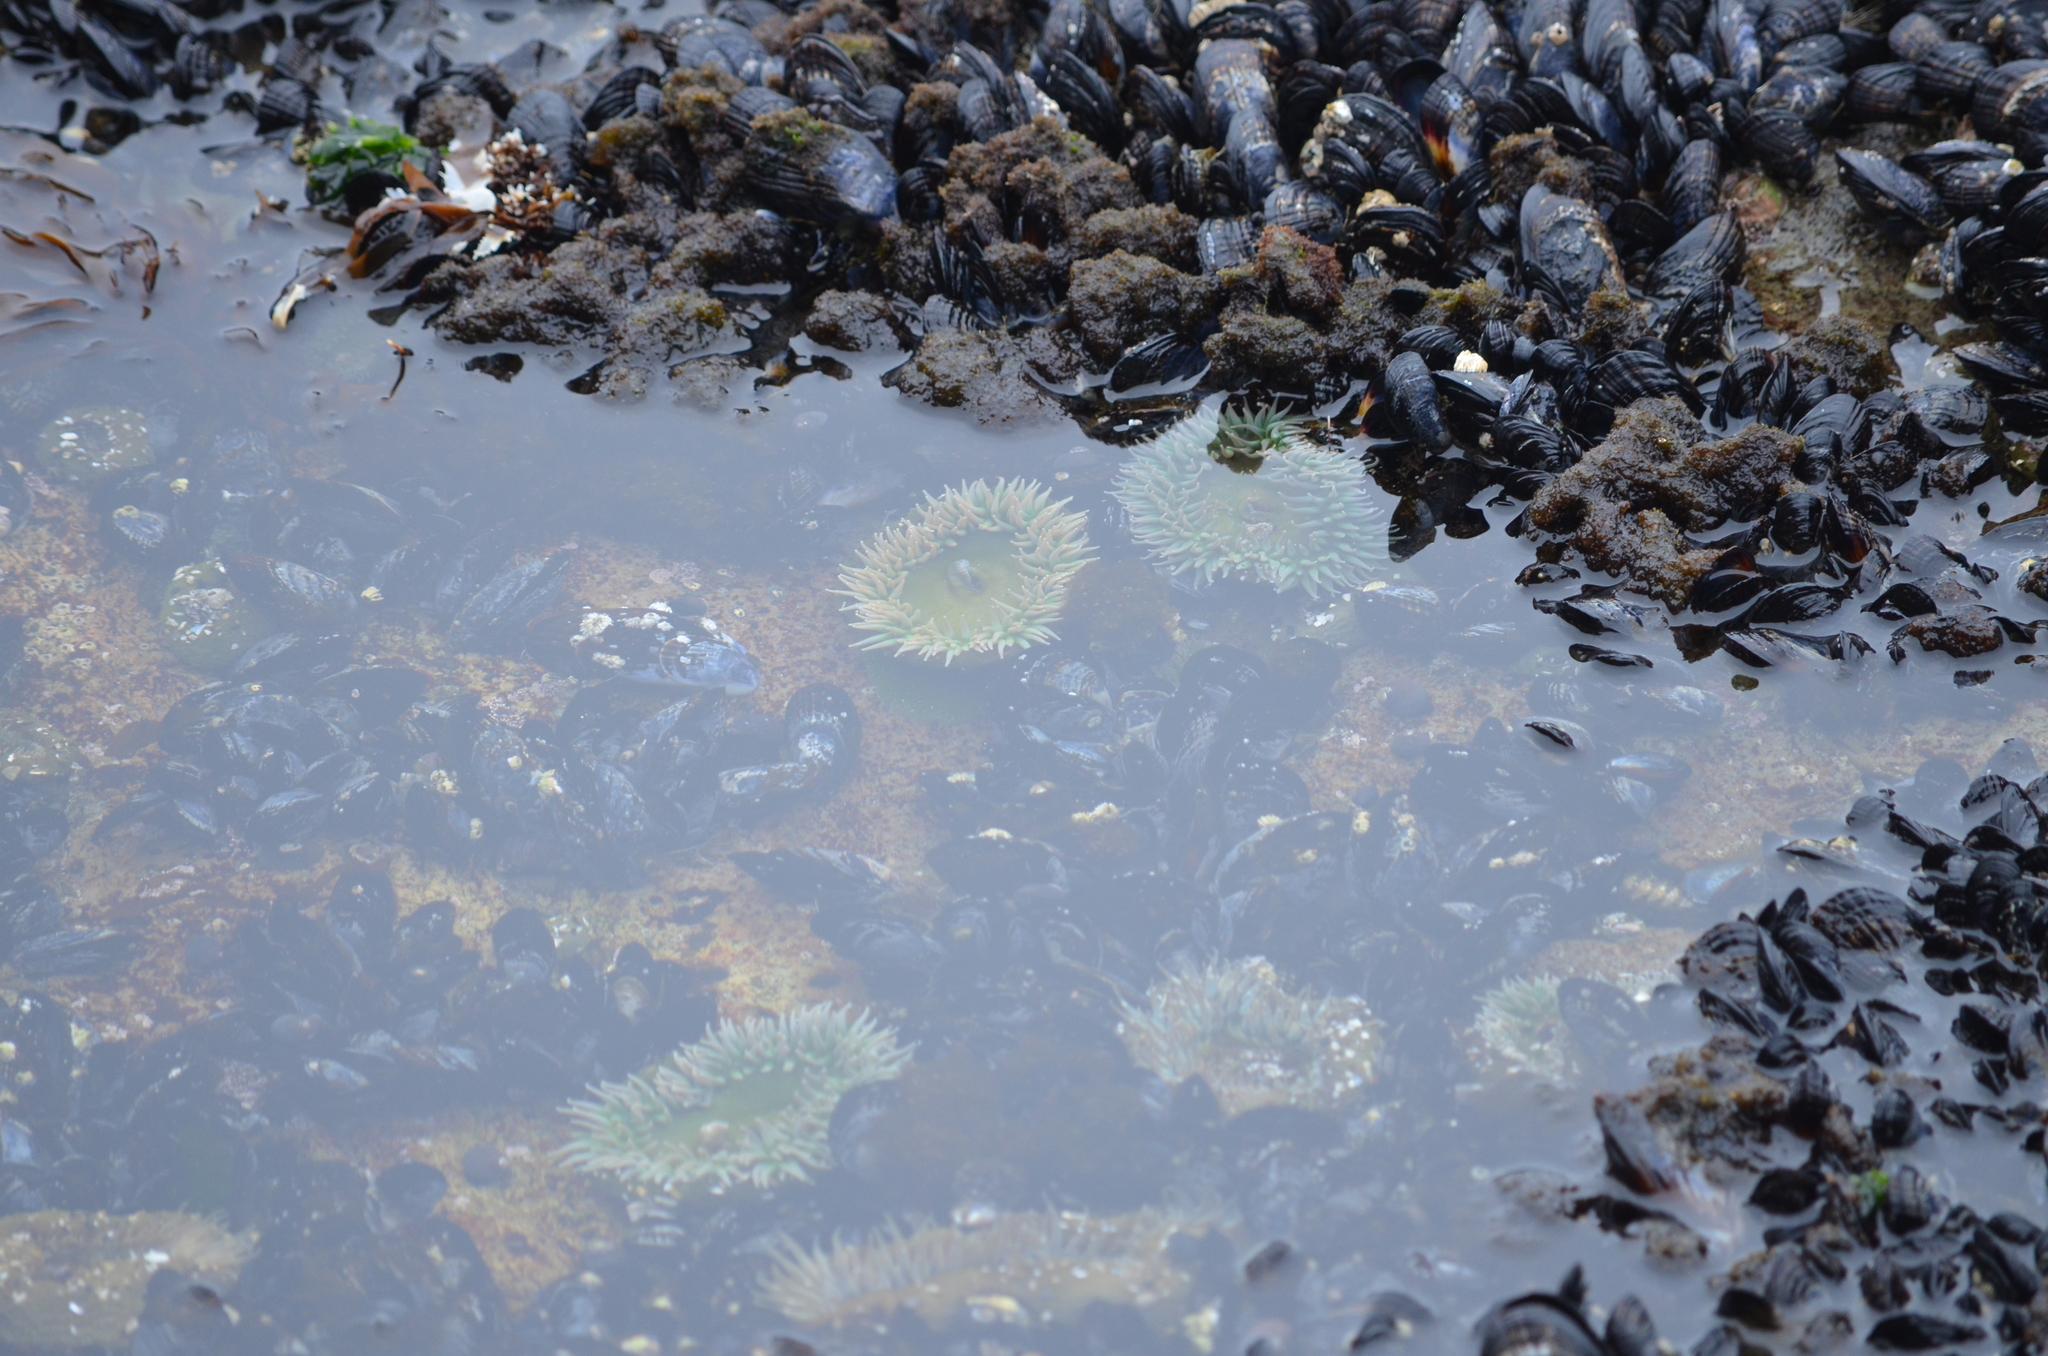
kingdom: Animalia
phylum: Cnidaria
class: Anthozoa
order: Actiniaria
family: Actiniidae
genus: Anthopleura
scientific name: Anthopleura xanthogrammica
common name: Giant green anemone
